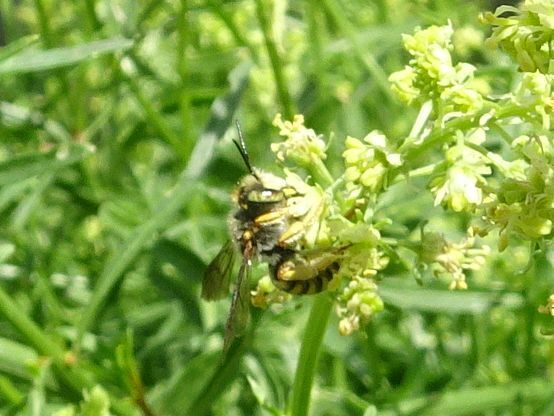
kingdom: Animalia
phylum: Arthropoda
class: Insecta
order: Hymenoptera
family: Megachilidae
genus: Anthidium
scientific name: Anthidium oblongatum
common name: Oblong wool carder bee
